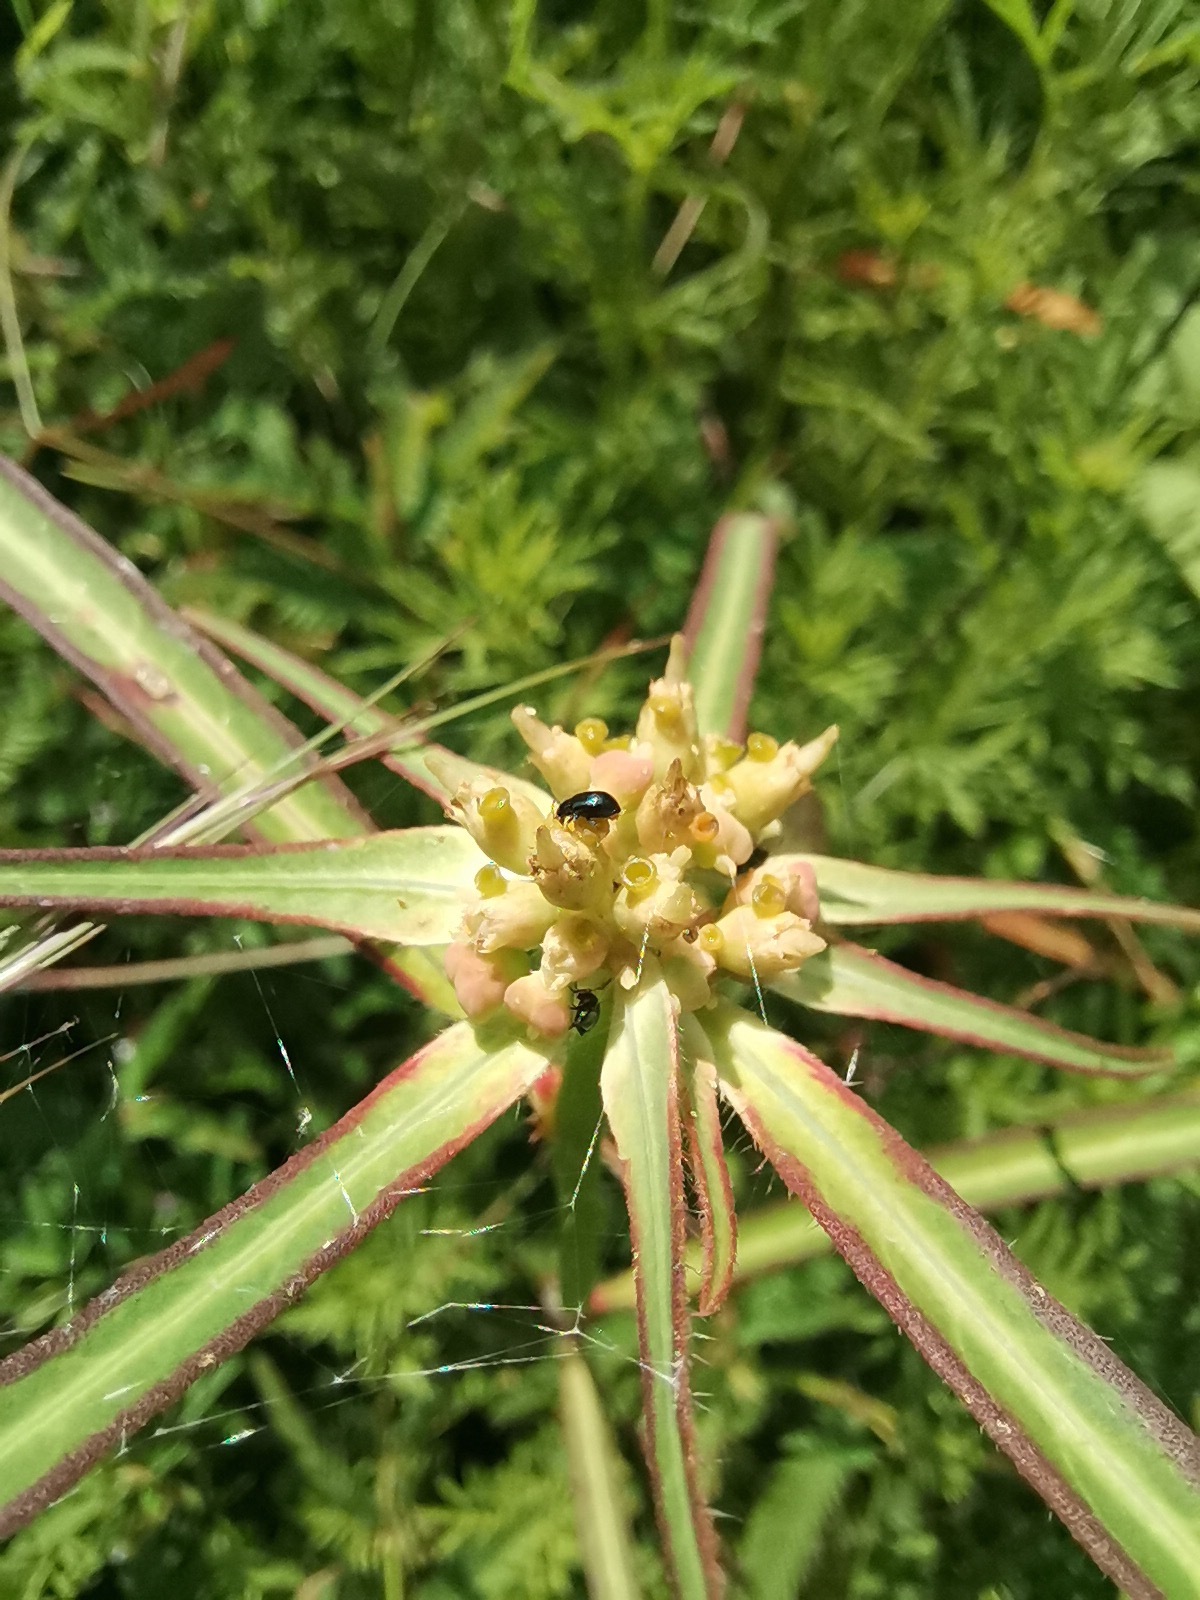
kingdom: Plantae
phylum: Tracheophyta
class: Magnoliopsida
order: Malpighiales
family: Euphorbiaceae
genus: Euphorbia
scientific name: Euphorbia heterophylla
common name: Mexican fireplant
